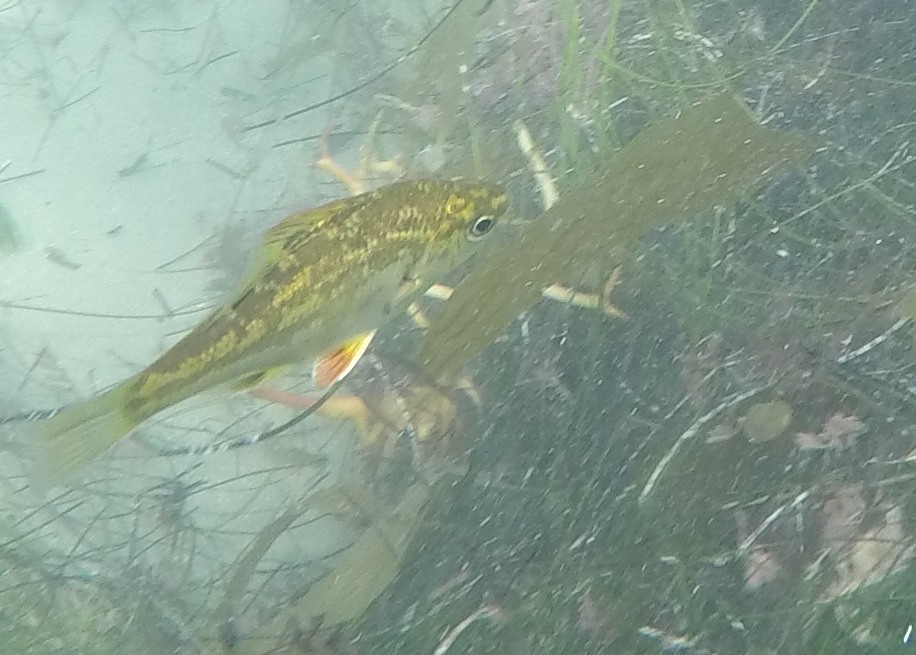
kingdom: Animalia
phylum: Chordata
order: Perciformes
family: Embiotocidae
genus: Micrometrus
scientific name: Micrometrus minimus
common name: Dwarf perch
